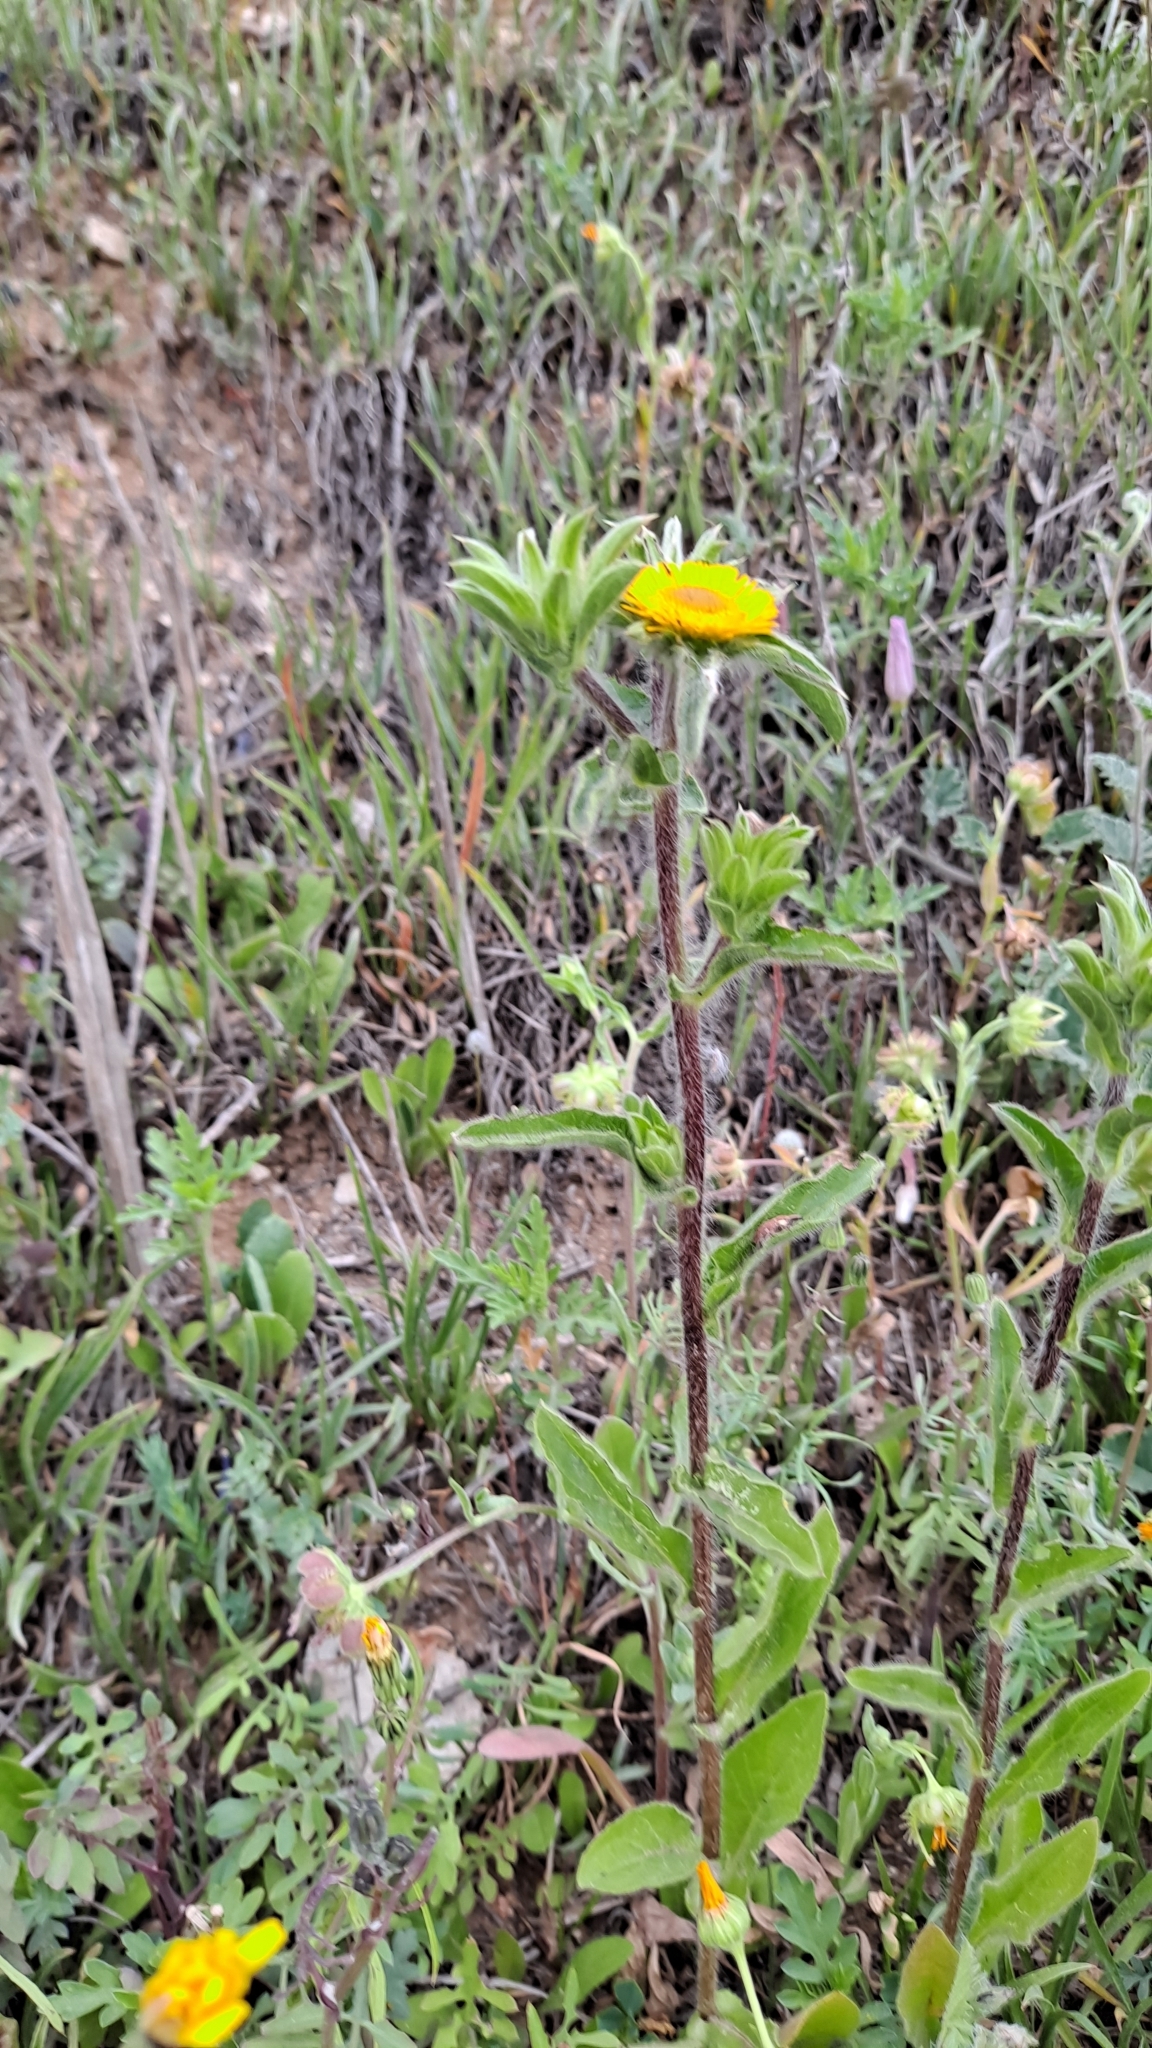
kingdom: Plantae
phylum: Tracheophyta
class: Magnoliopsida
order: Asterales
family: Asteraceae
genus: Pallenis
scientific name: Pallenis spinosa
